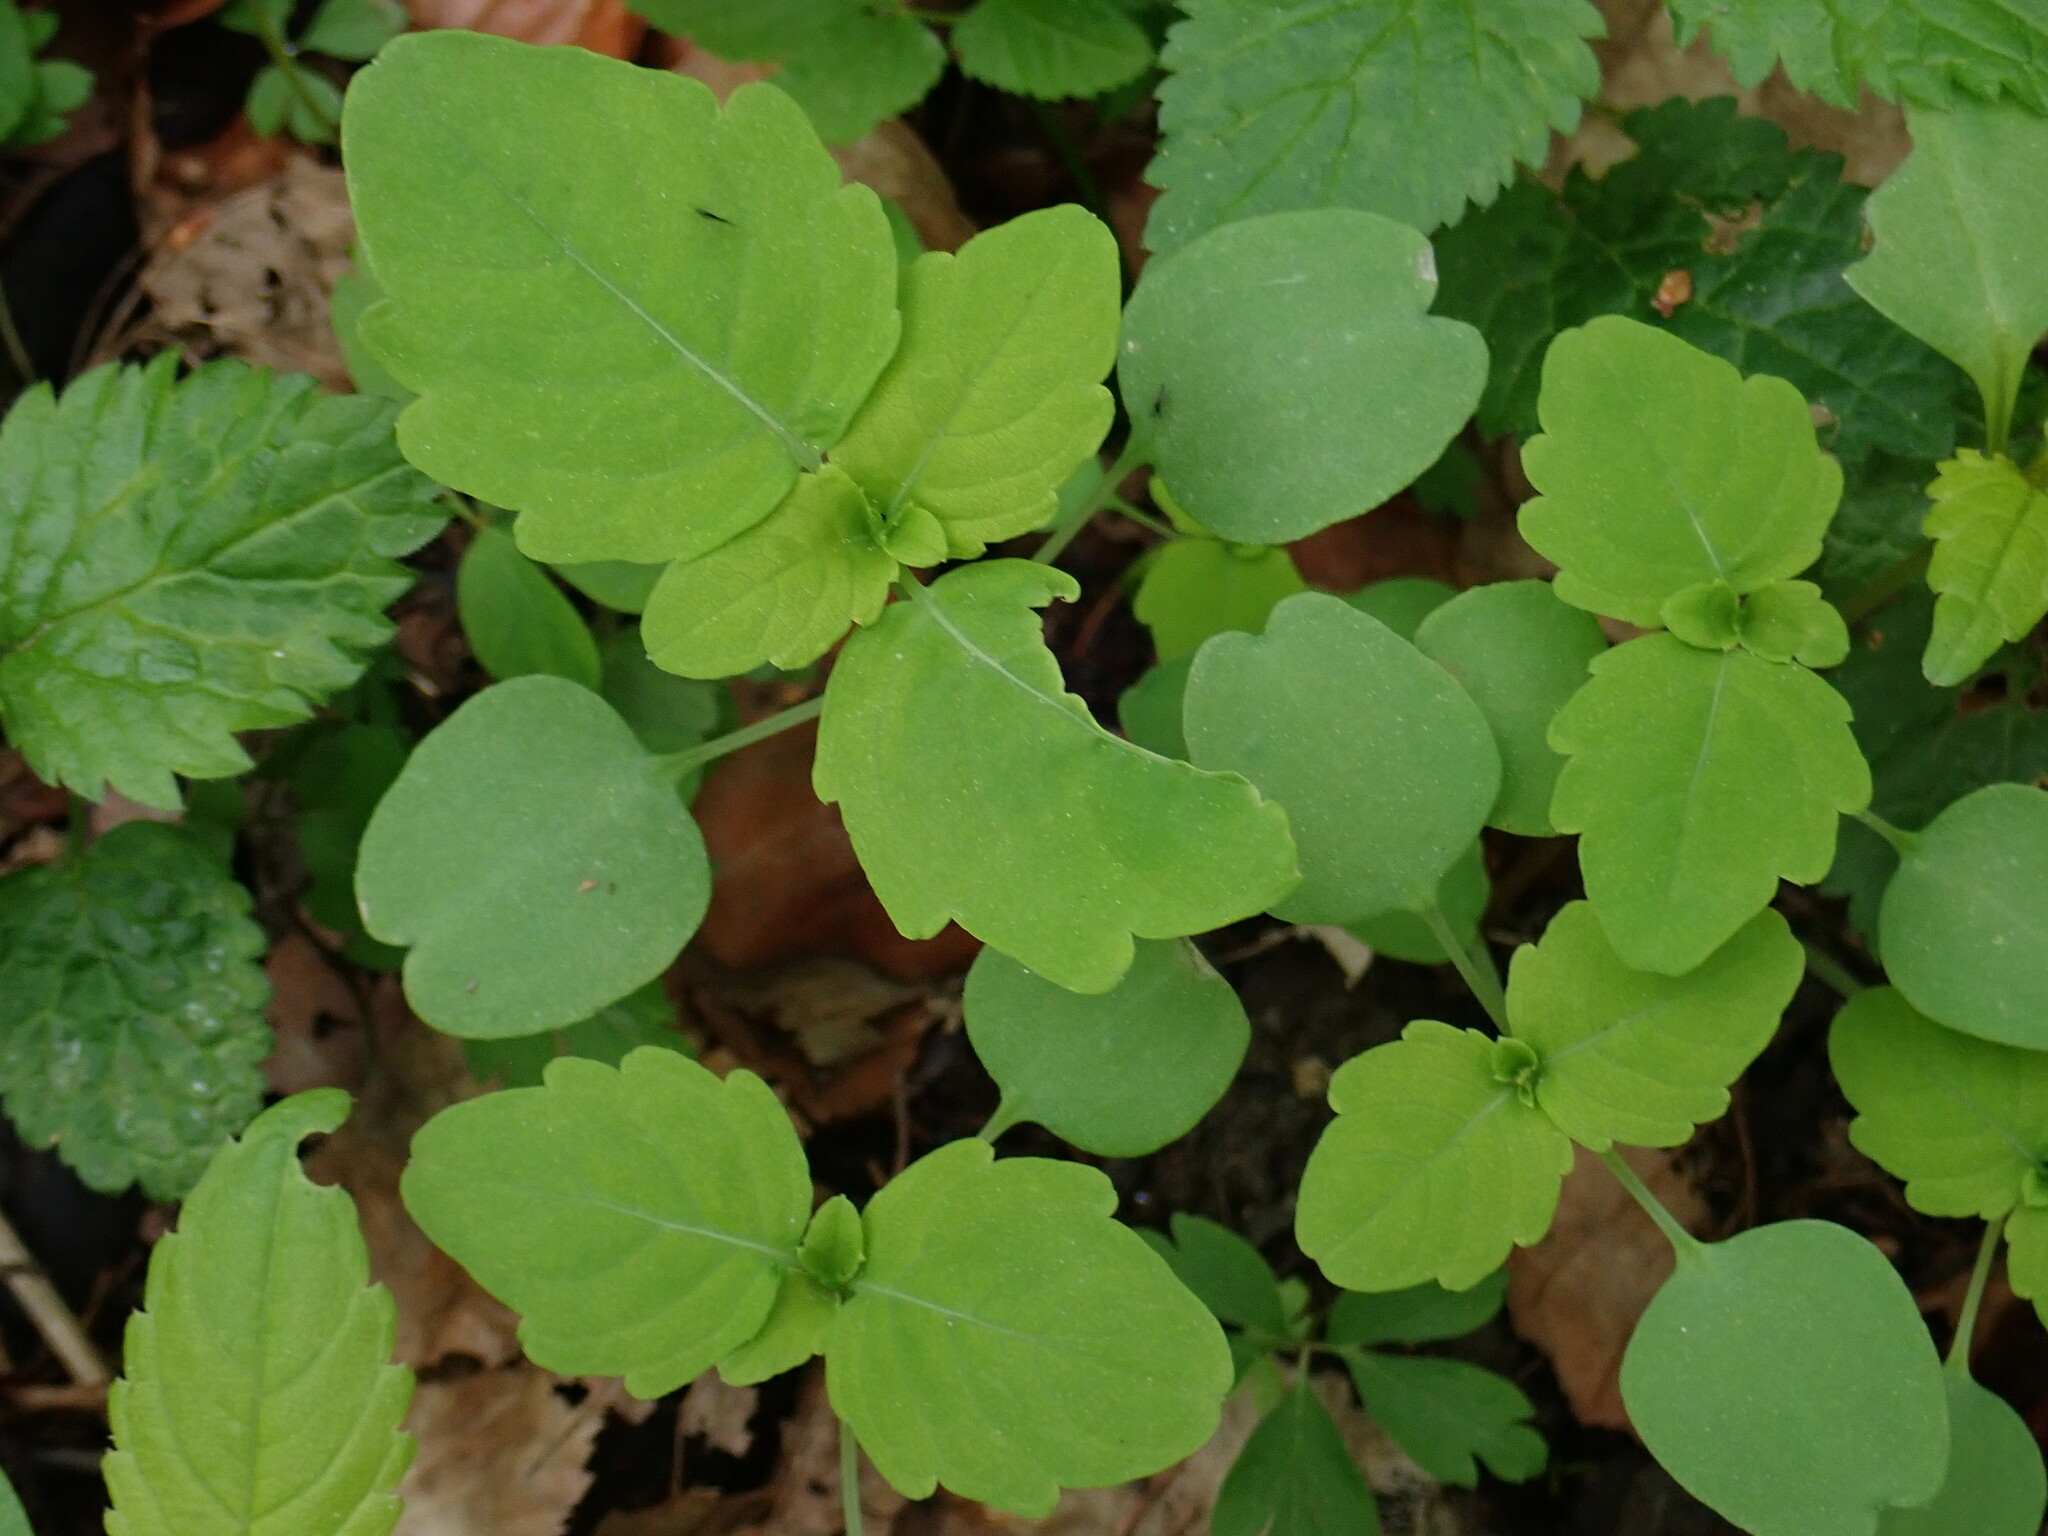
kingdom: Plantae
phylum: Tracheophyta
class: Magnoliopsida
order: Ericales
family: Balsaminaceae
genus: Impatiens
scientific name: Impatiens noli-tangere
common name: Touch-me-not balsam
